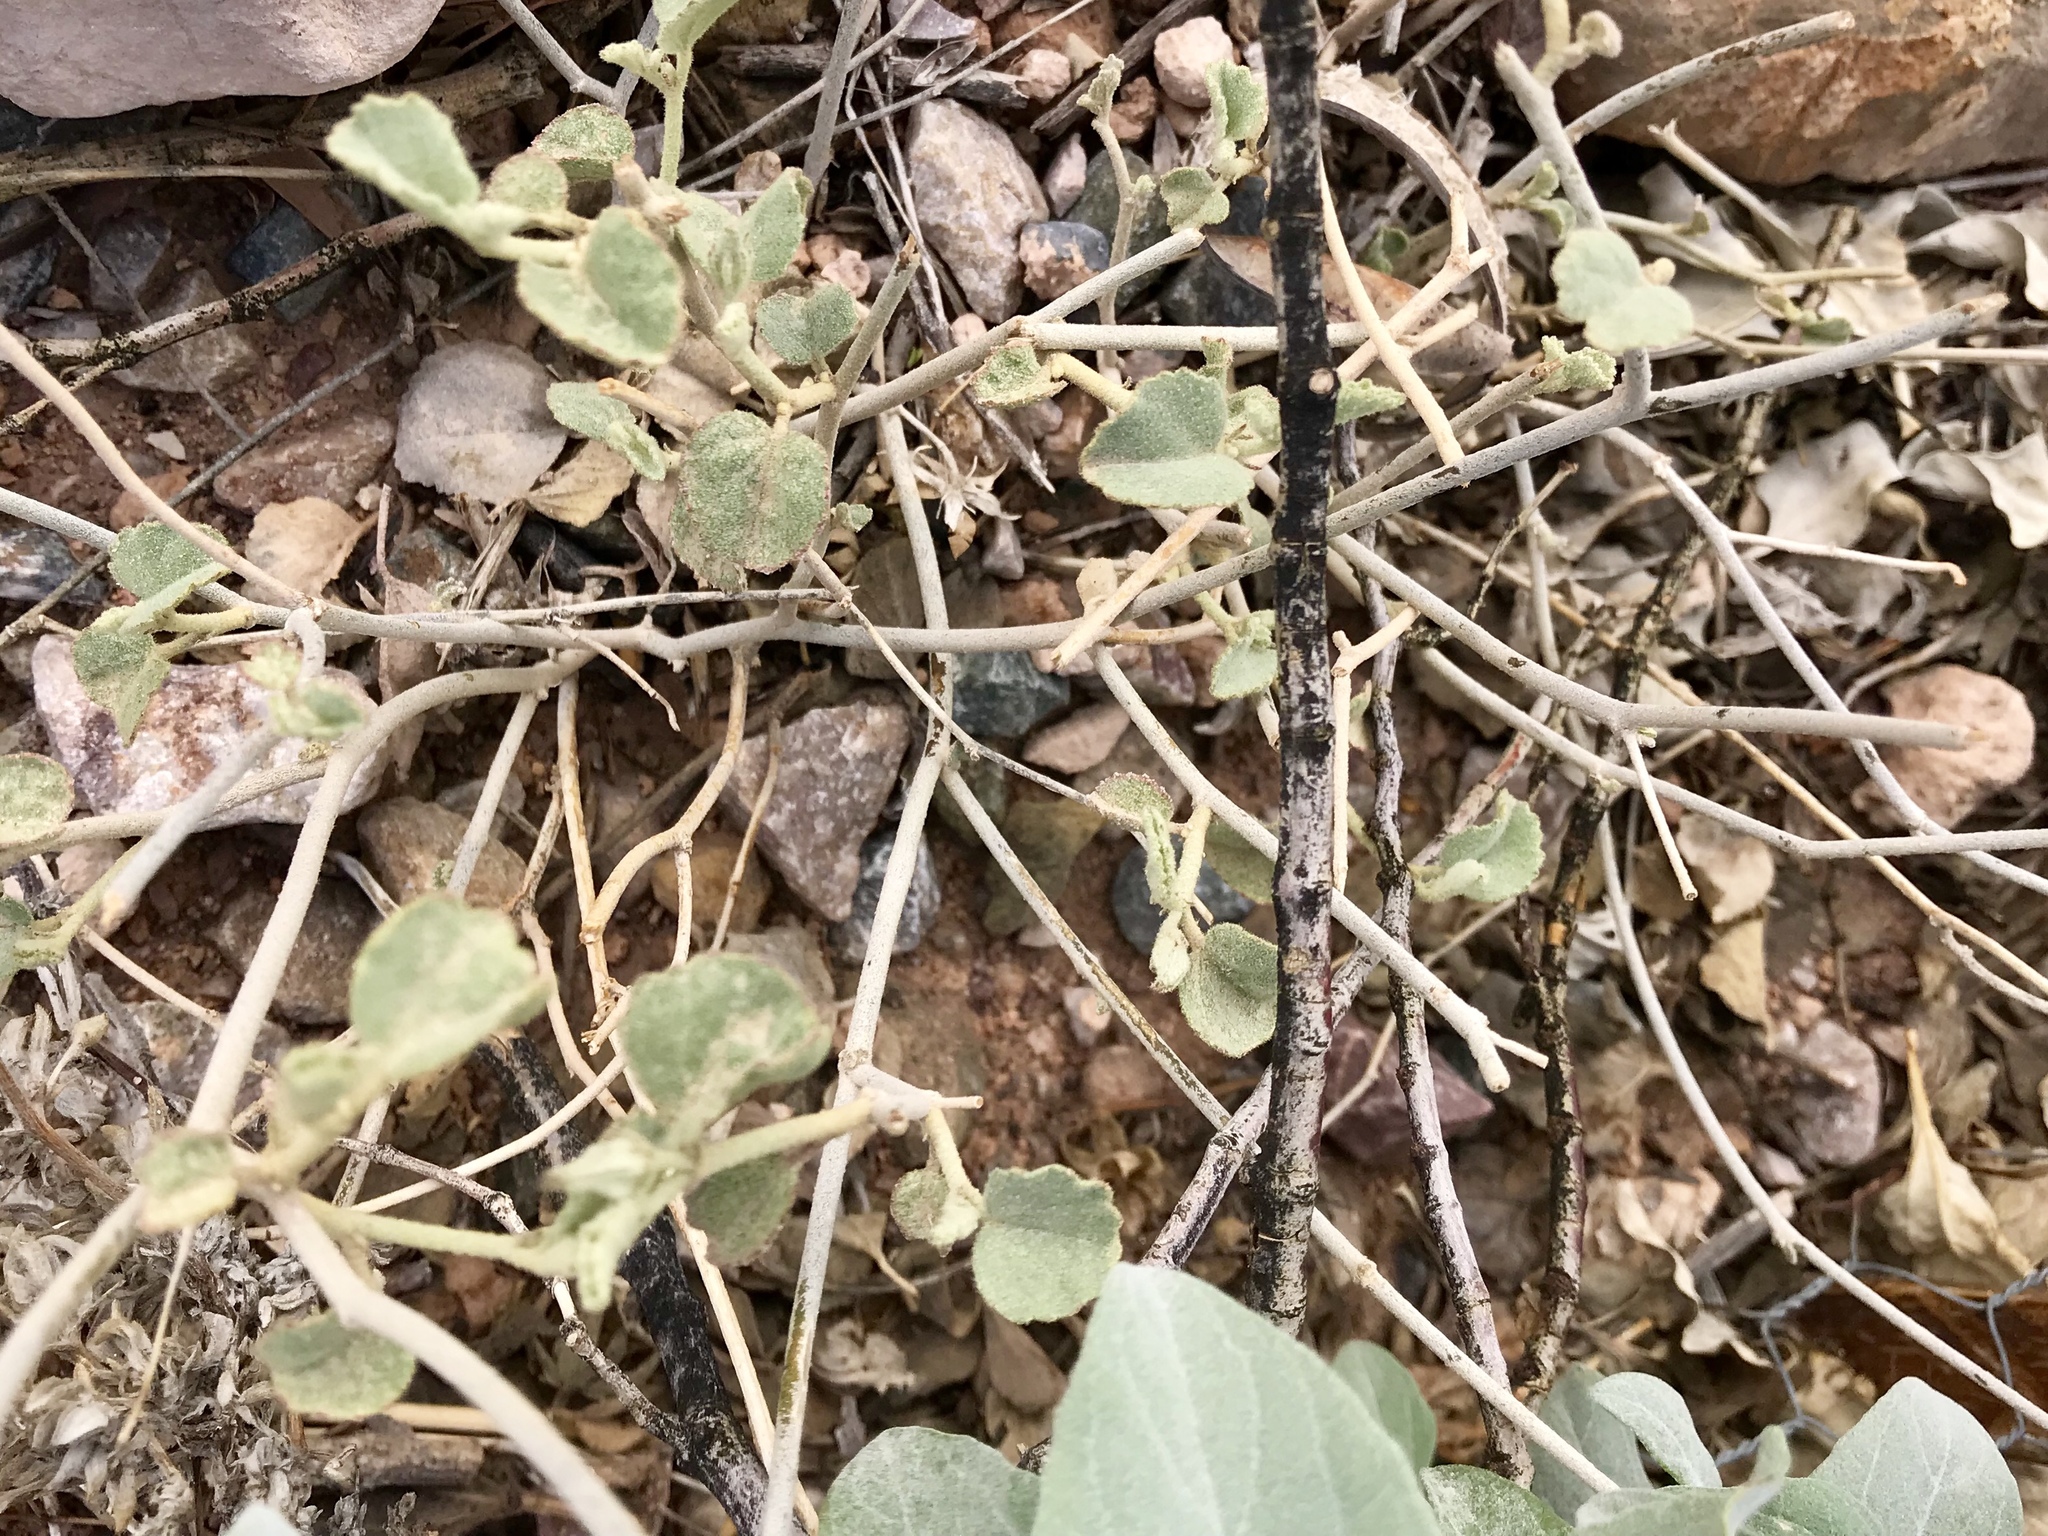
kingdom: Plantae
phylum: Tracheophyta
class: Magnoliopsida
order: Malvales
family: Malvaceae
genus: Hibiscus
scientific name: Hibiscus denudatus
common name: Paleface
